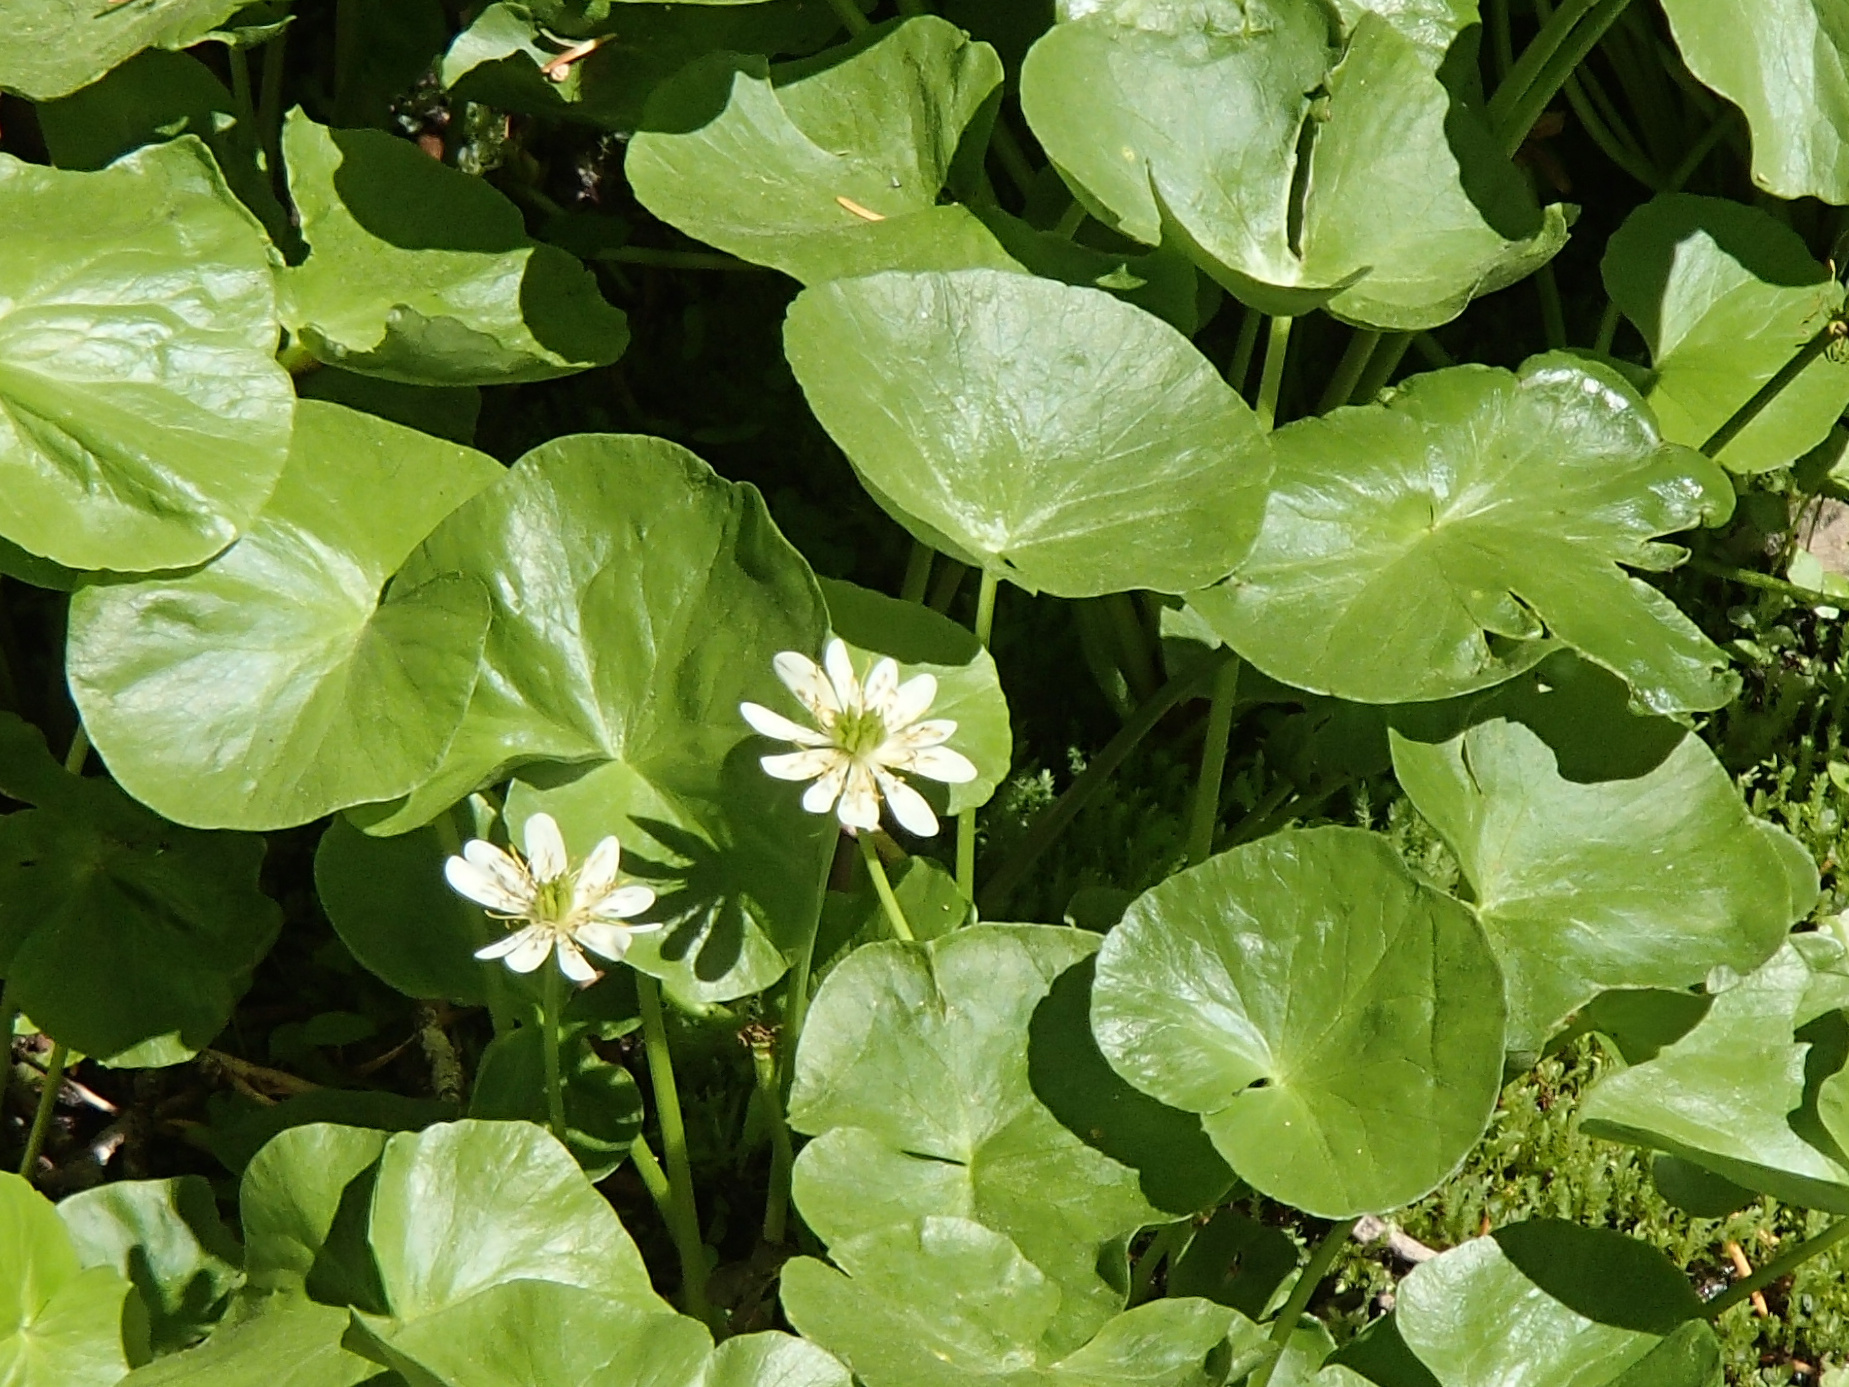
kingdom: Plantae
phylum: Tracheophyta
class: Magnoliopsida
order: Ranunculales
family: Ranunculaceae
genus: Caltha
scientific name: Caltha leptosepala
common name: Elkslip
